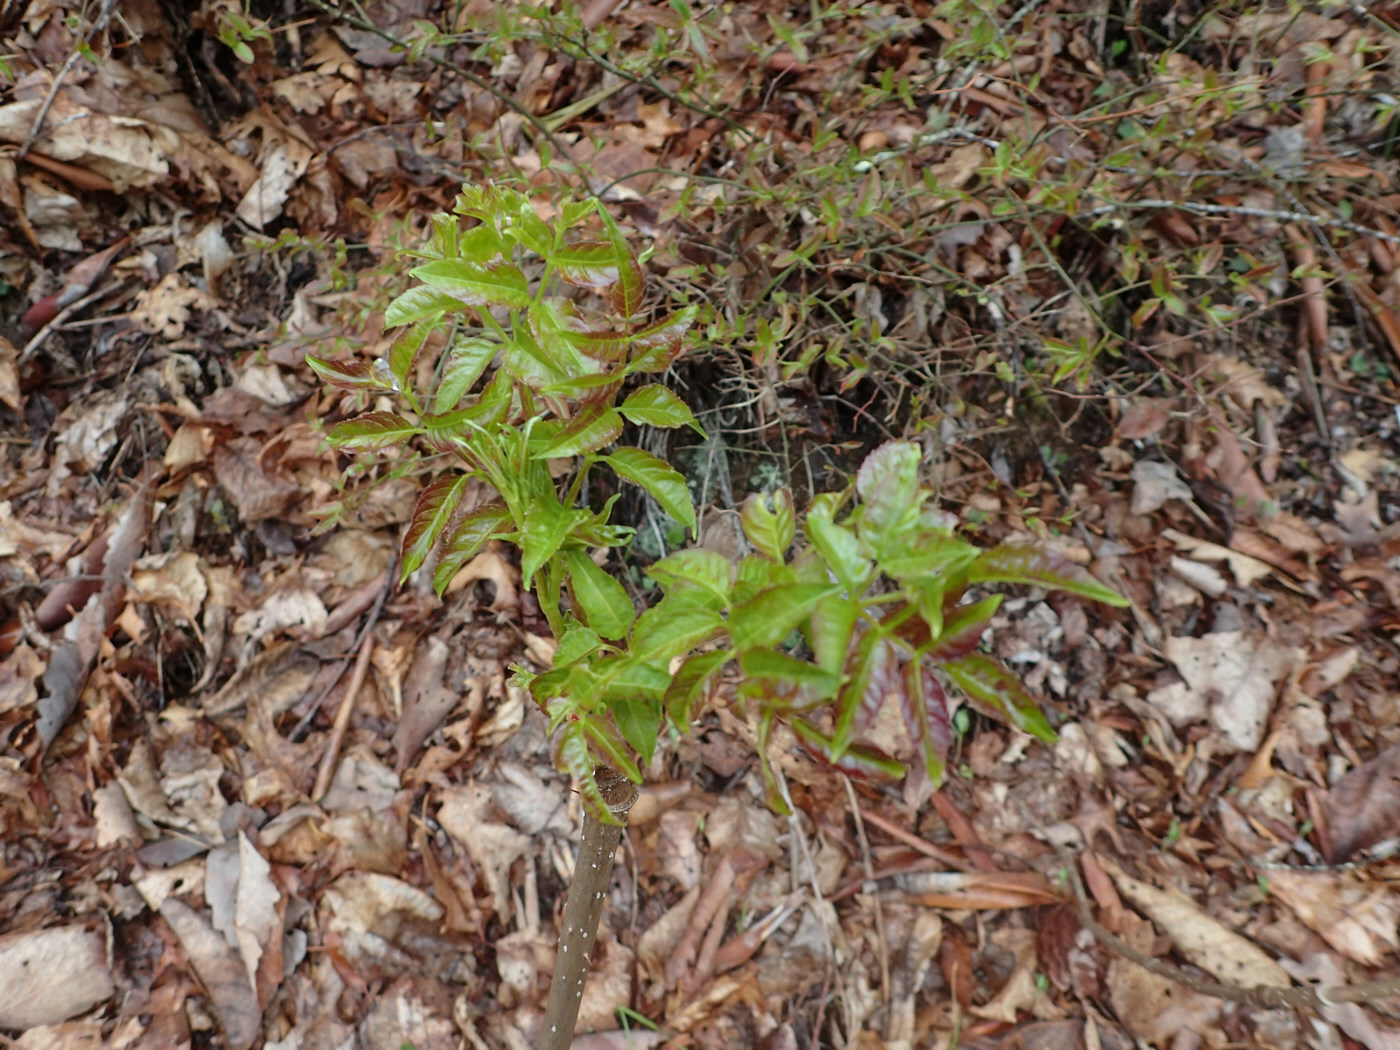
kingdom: Plantae
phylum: Tracheophyta
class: Magnoliopsida
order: Apiales
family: Araliaceae
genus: Aralia
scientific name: Aralia spinosa
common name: Hercules'-club
